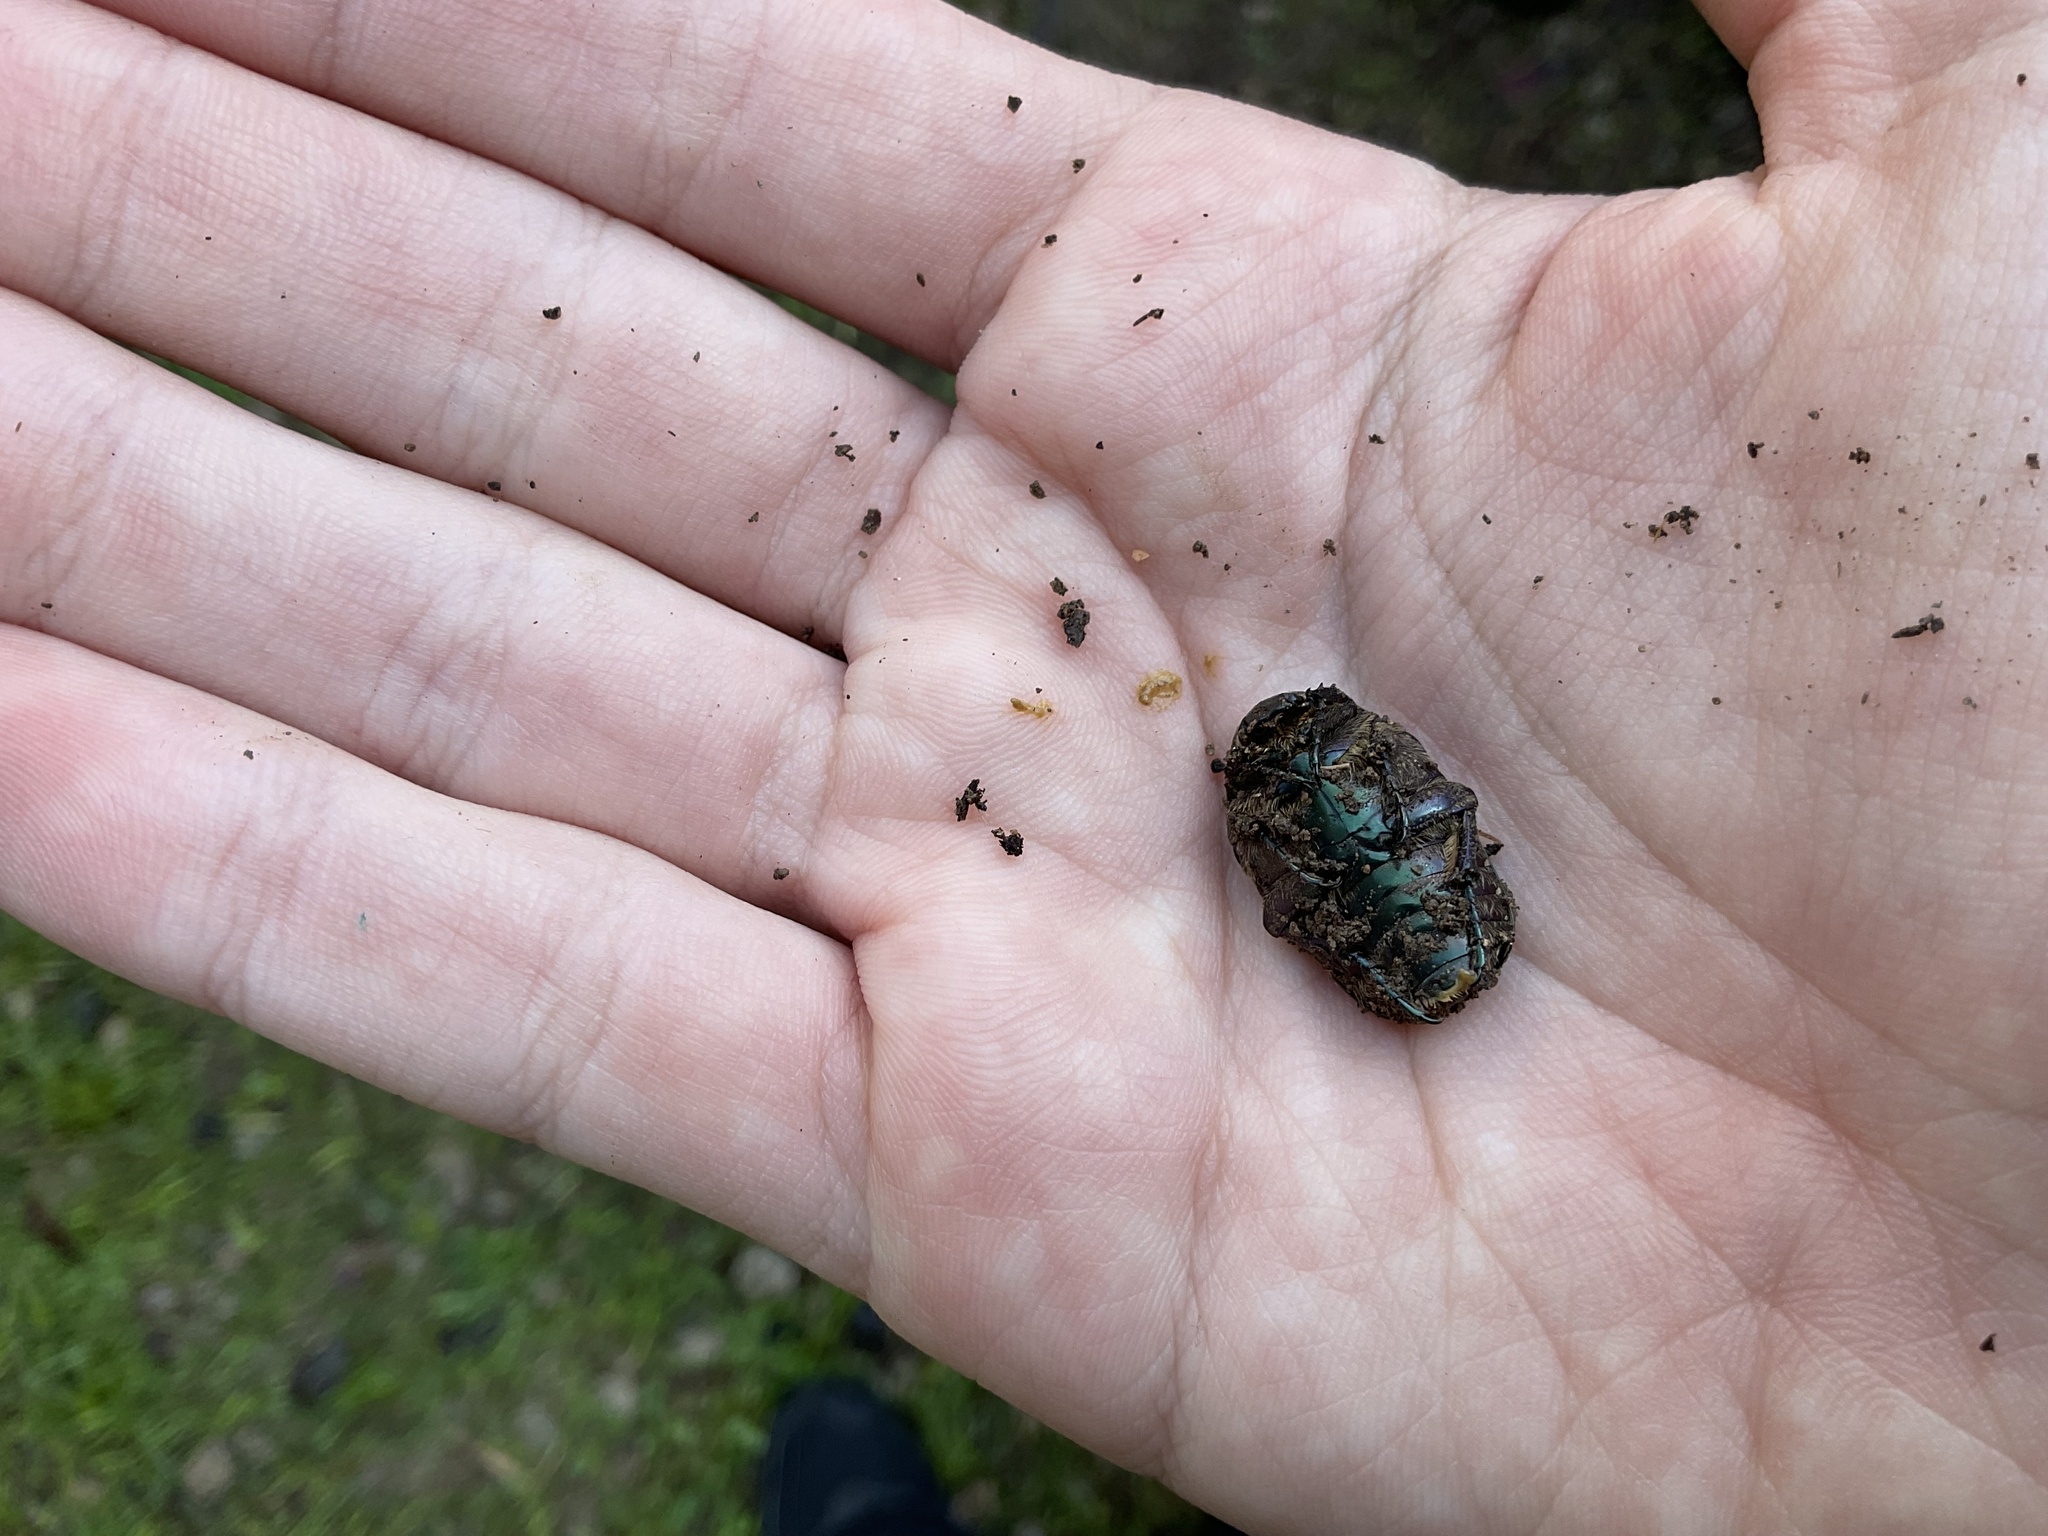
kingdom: Animalia
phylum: Arthropoda
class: Insecta
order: Coleoptera
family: Scarabaeidae
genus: Protaetia
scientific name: Protaetia cuprea
